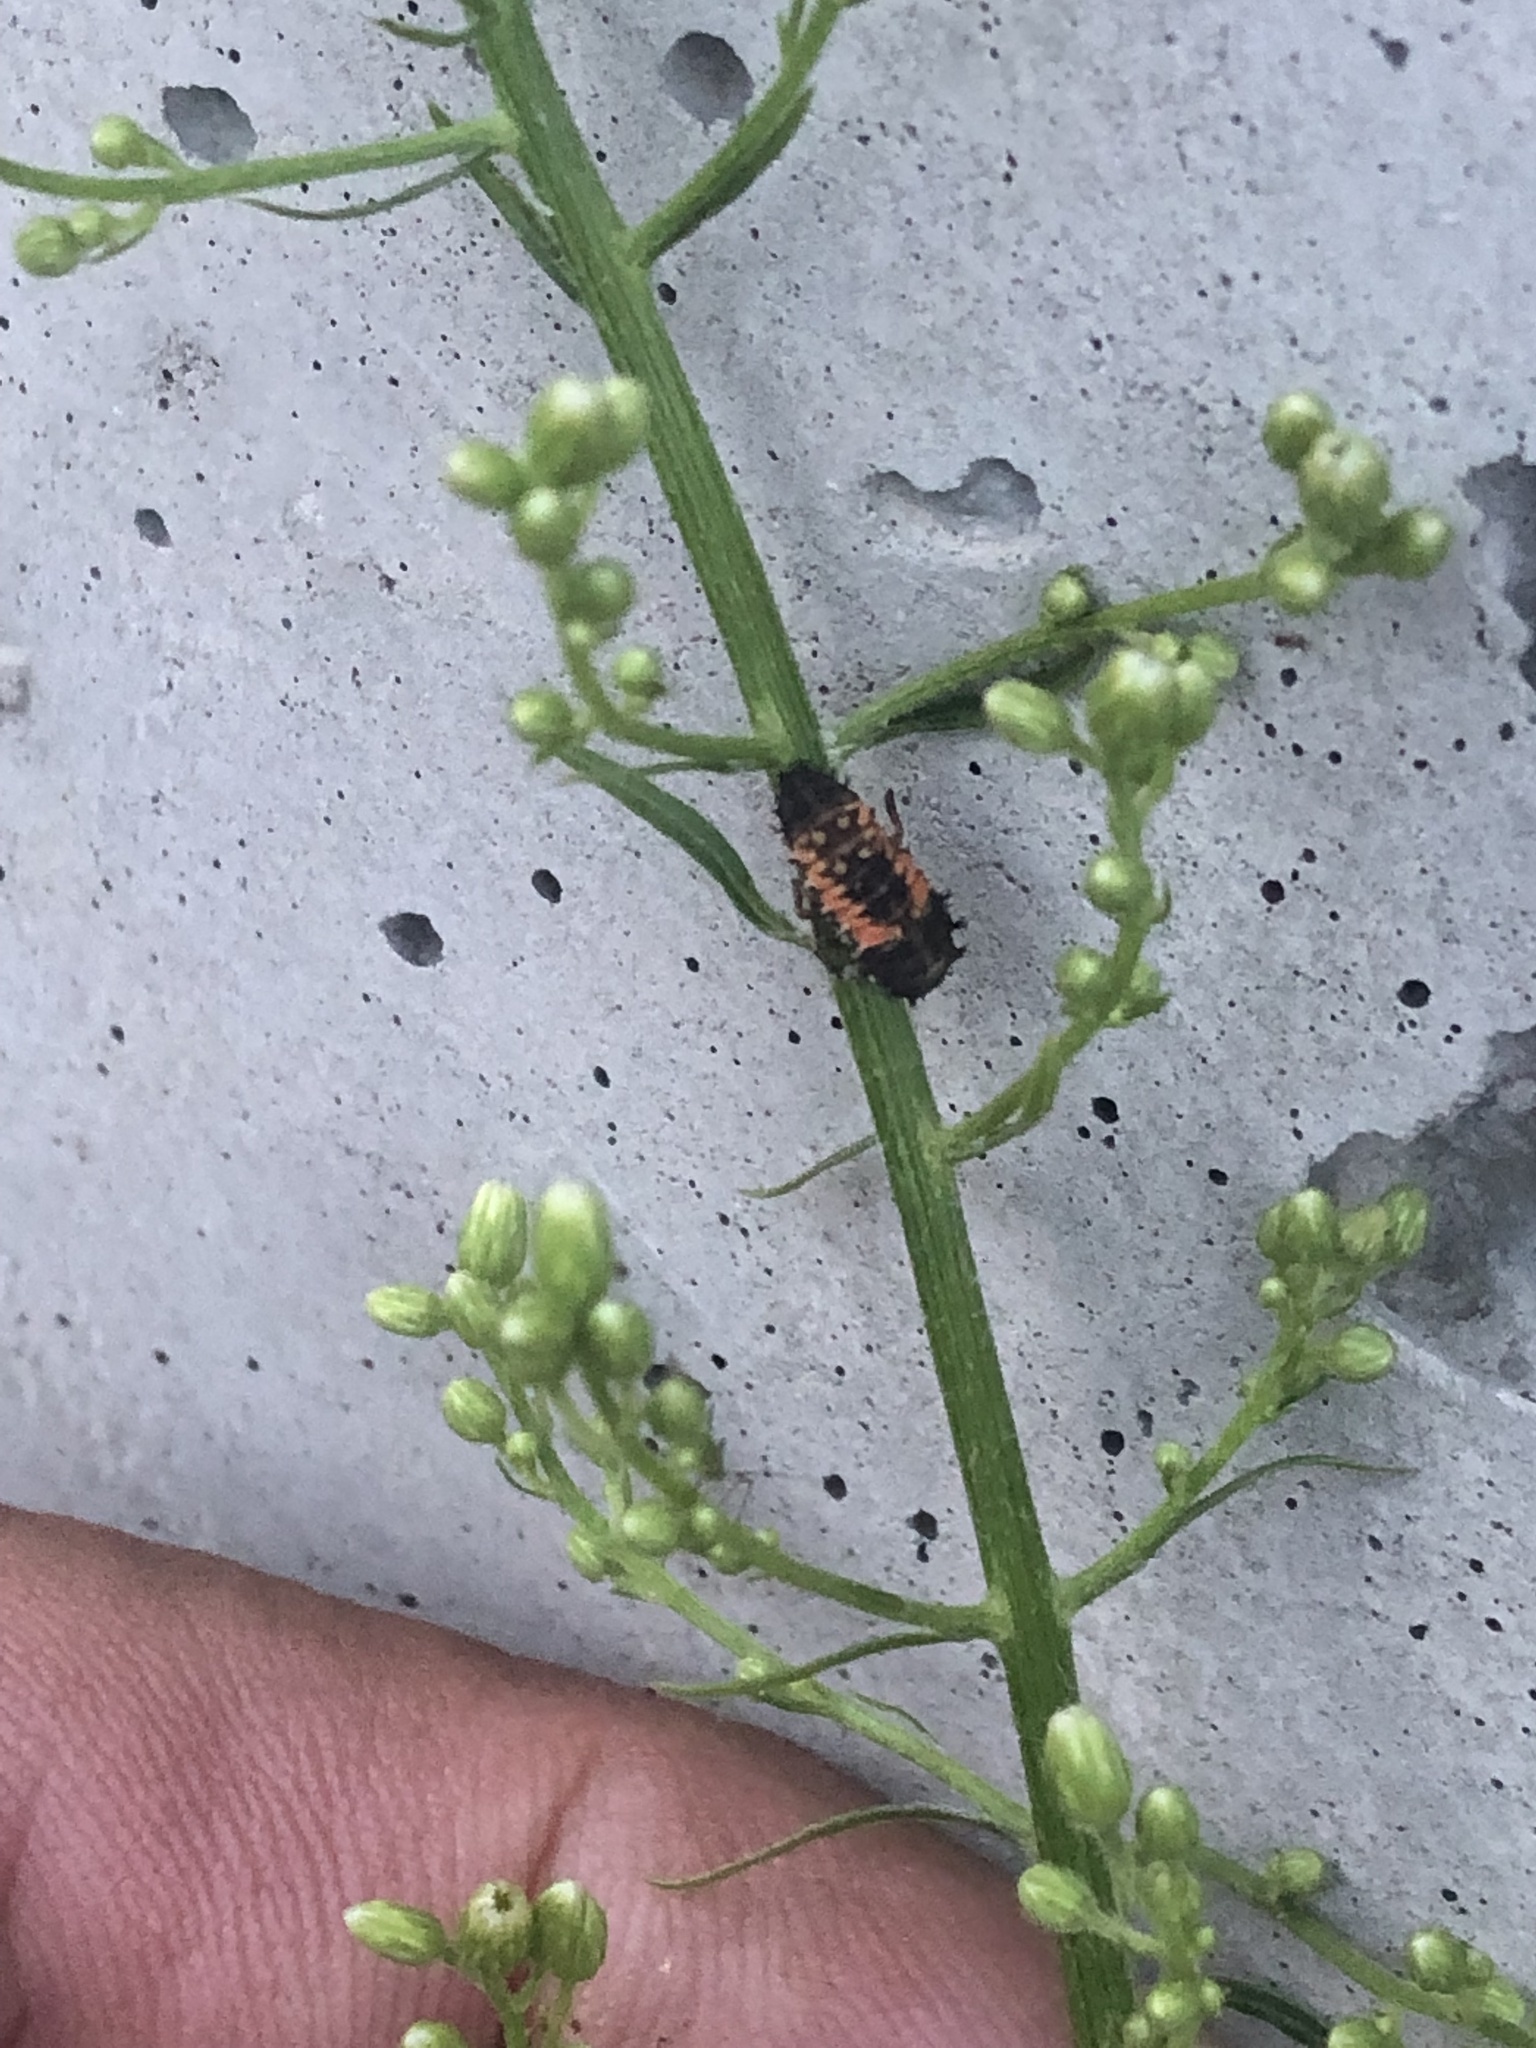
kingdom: Animalia
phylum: Arthropoda
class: Insecta
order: Coleoptera
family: Coccinellidae
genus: Harmonia
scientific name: Harmonia axyridis
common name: Harlequin ladybird
